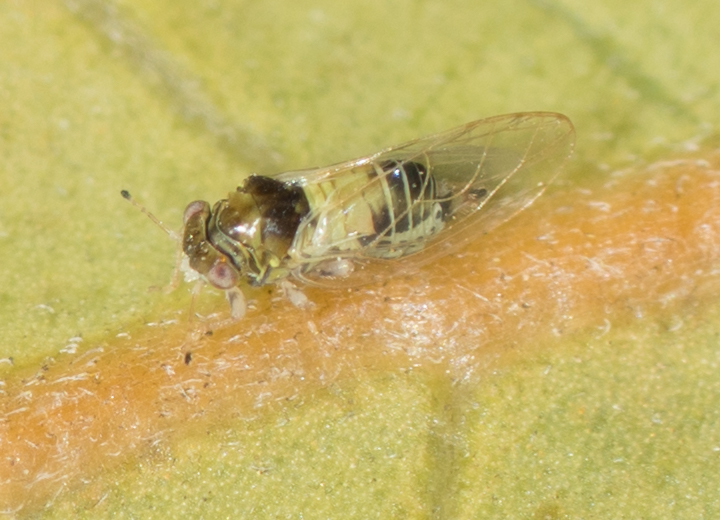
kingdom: Animalia
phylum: Arthropoda
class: Insecta
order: Hemiptera
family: Calophyidae
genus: Calophya
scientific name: Calophya californica
